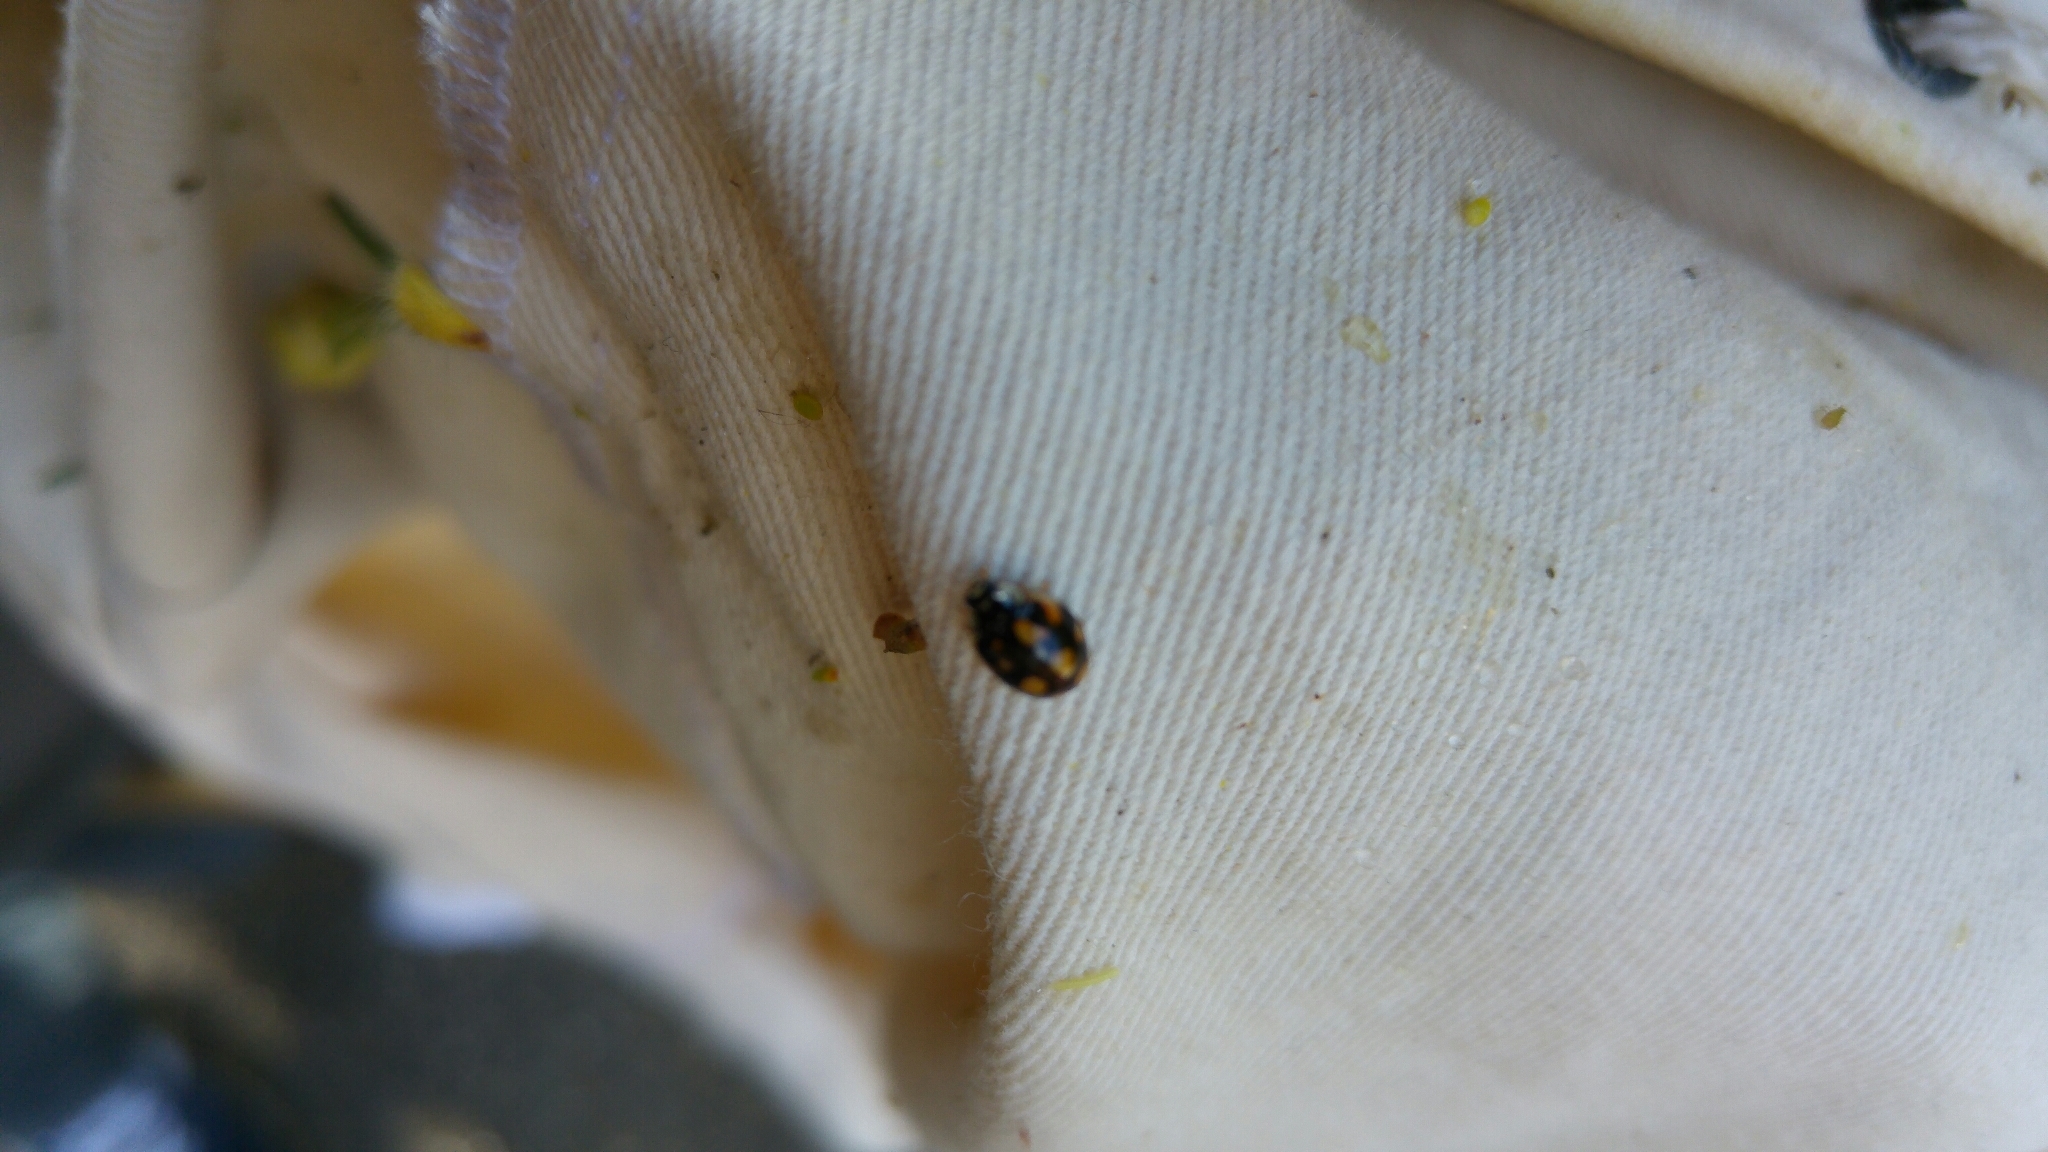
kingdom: Animalia
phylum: Arthropoda
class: Insecta
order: Coleoptera
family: Coccinellidae
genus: Adalia
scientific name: Adalia decempunctata
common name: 10-spot ladybird
